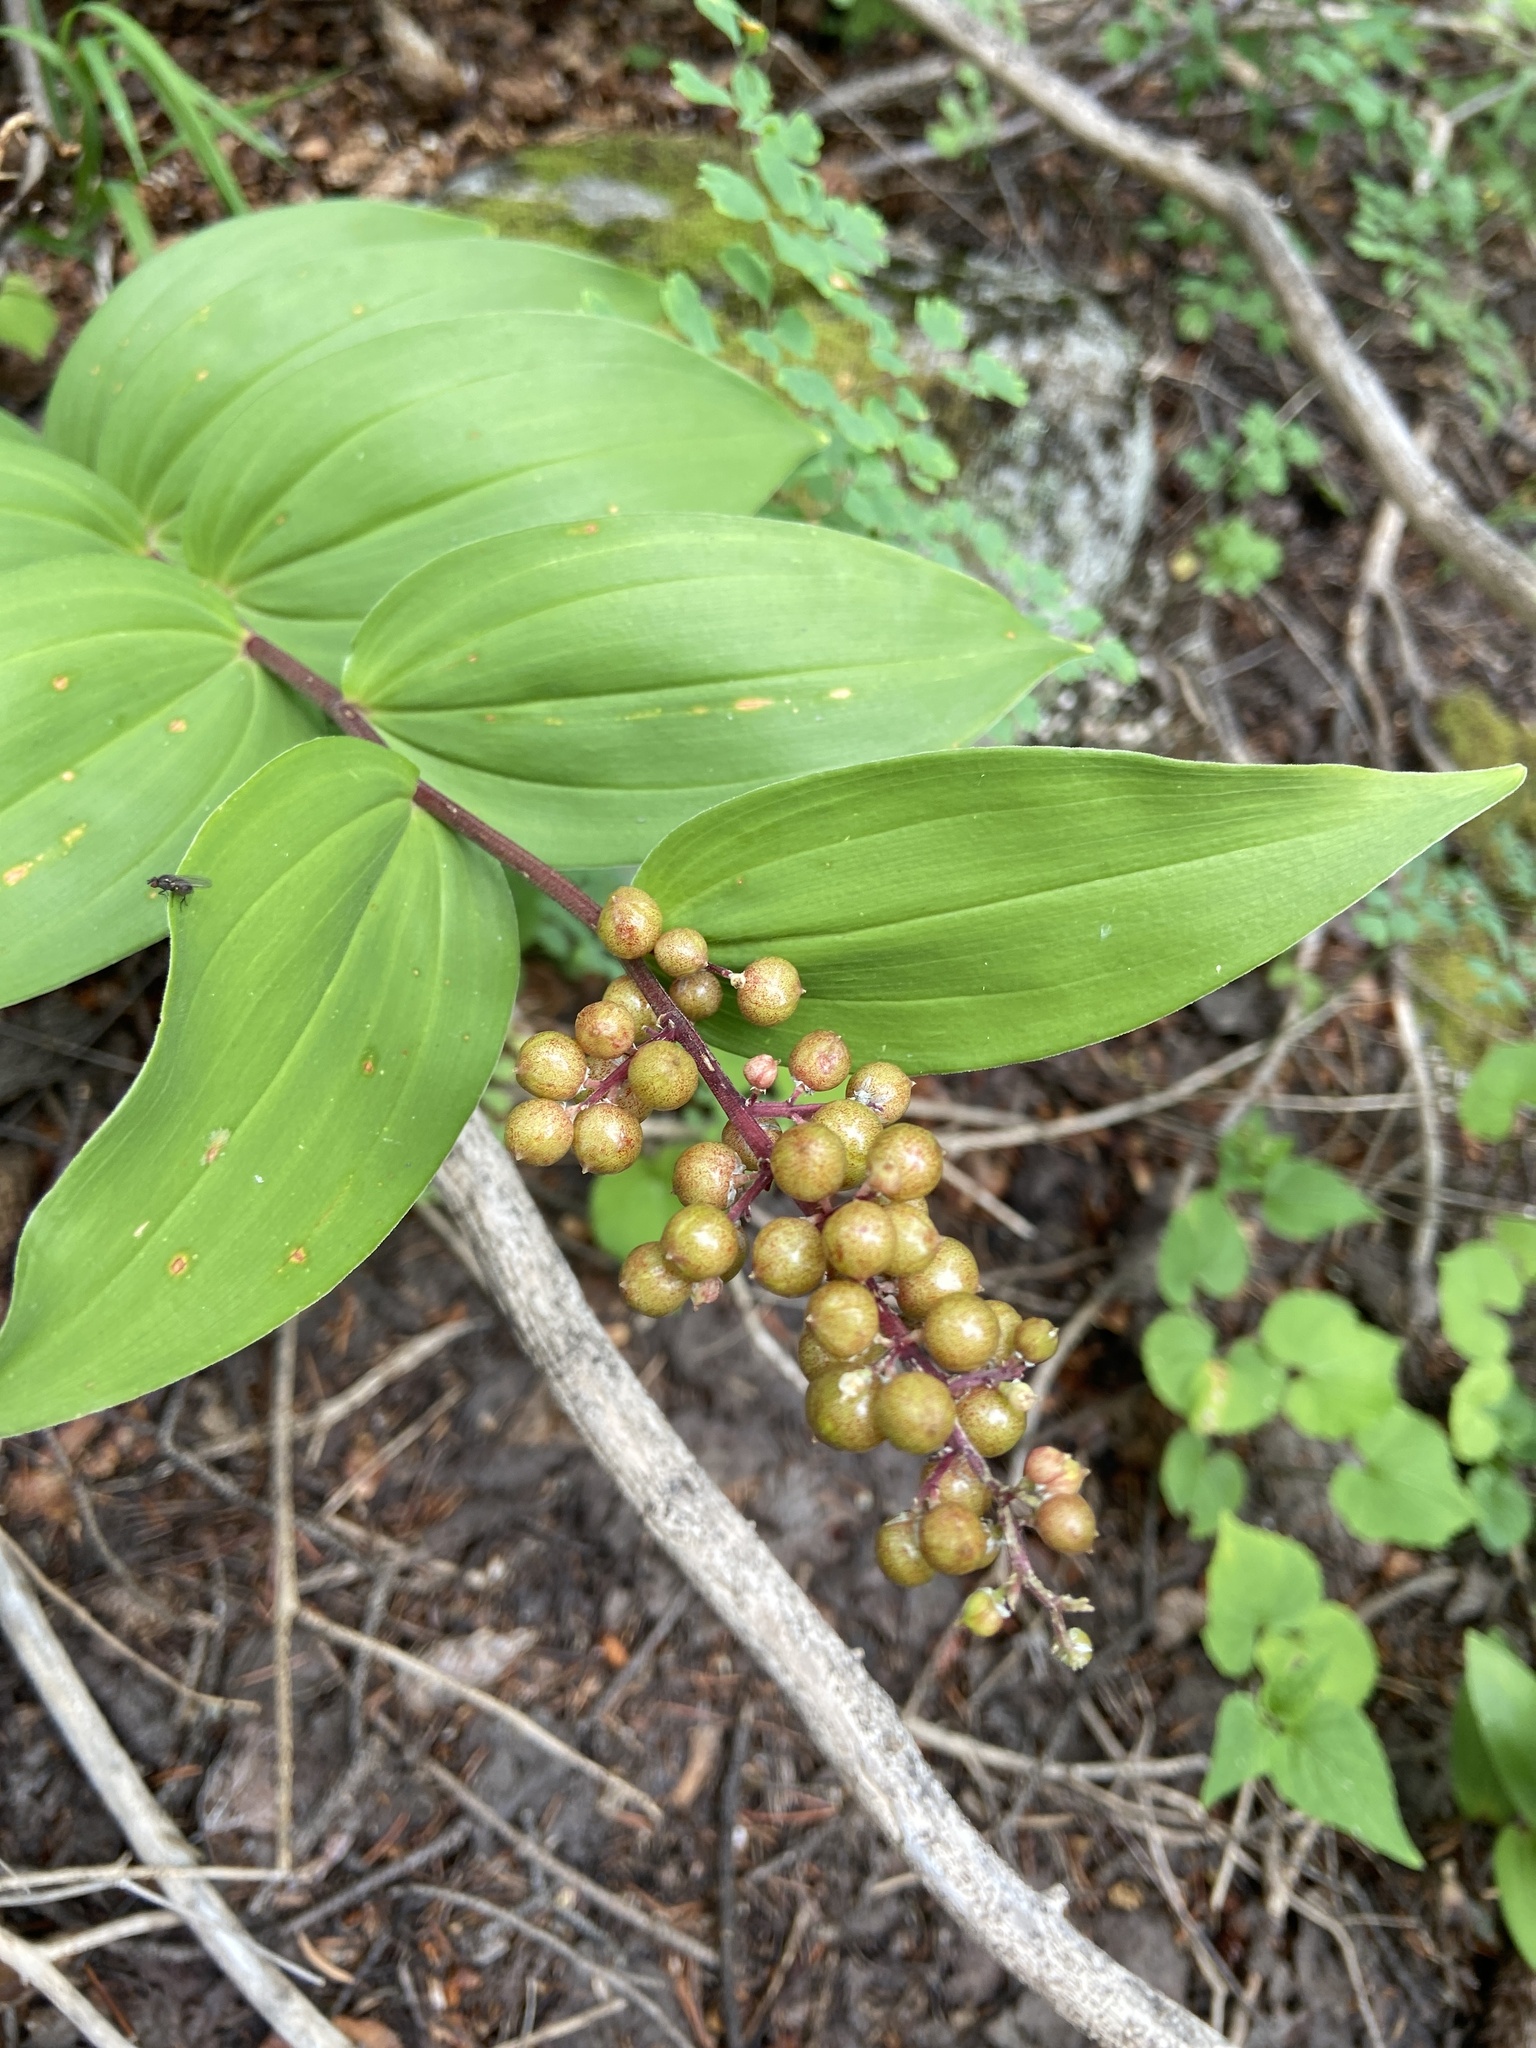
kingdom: Plantae
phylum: Tracheophyta
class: Liliopsida
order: Asparagales
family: Asparagaceae
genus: Maianthemum
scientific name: Maianthemum racemosum
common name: False spikenard
